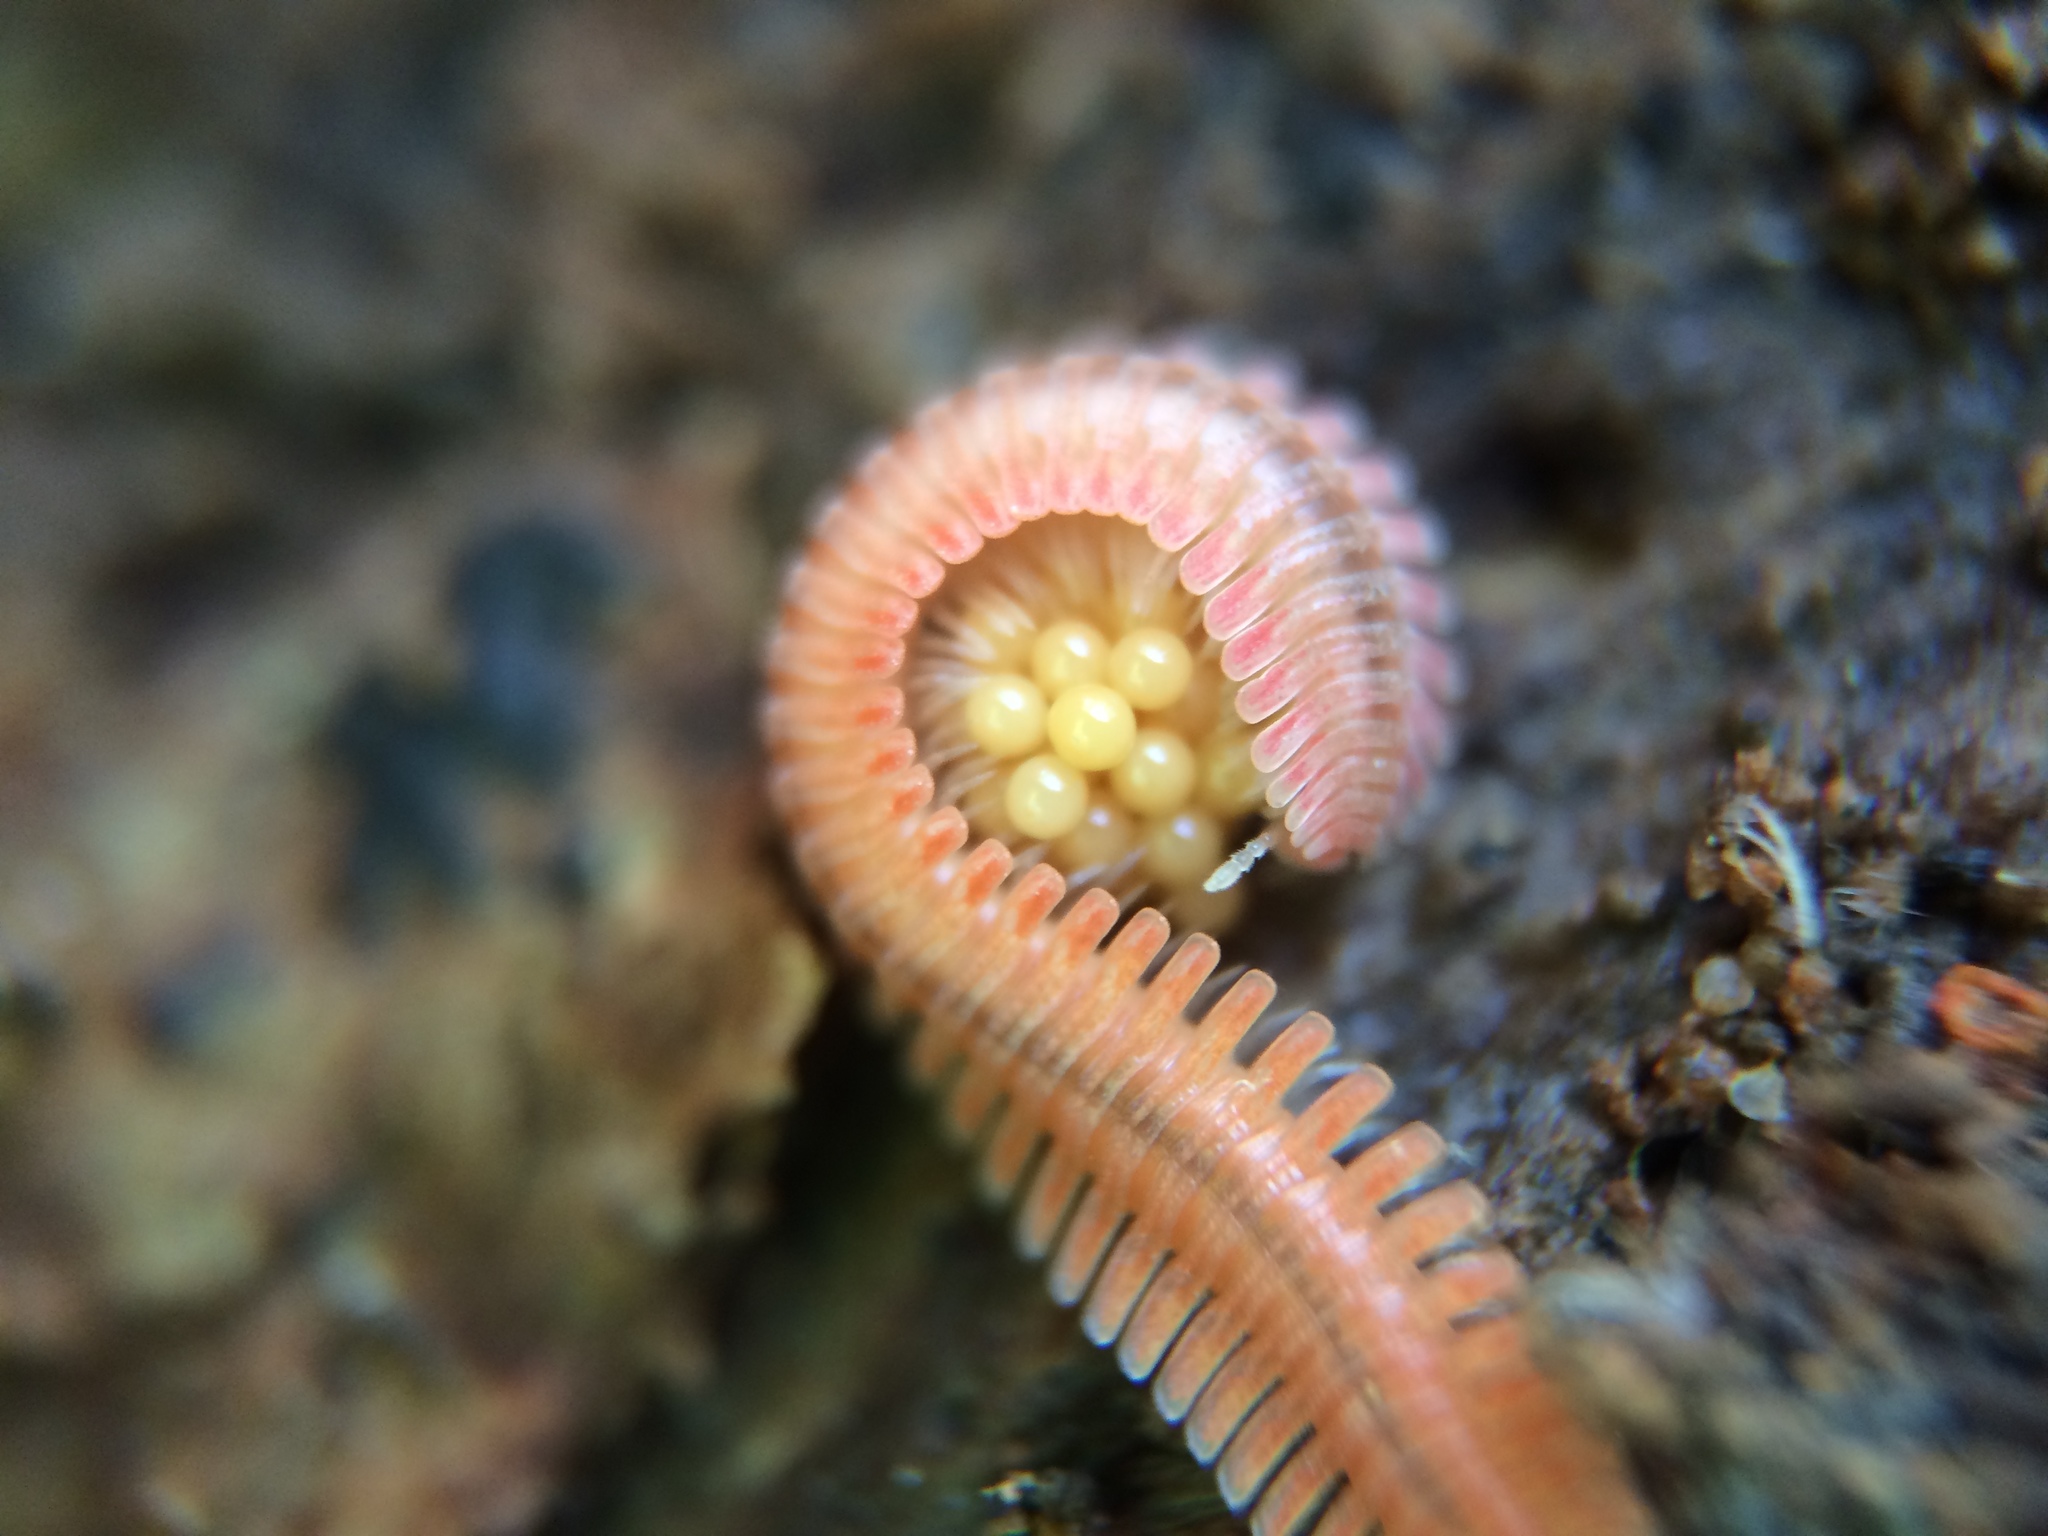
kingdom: Animalia
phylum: Arthropoda
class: Diplopoda
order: Platydesmida
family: Andrognathidae
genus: Brachycybe
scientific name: Brachycybe lecontii
